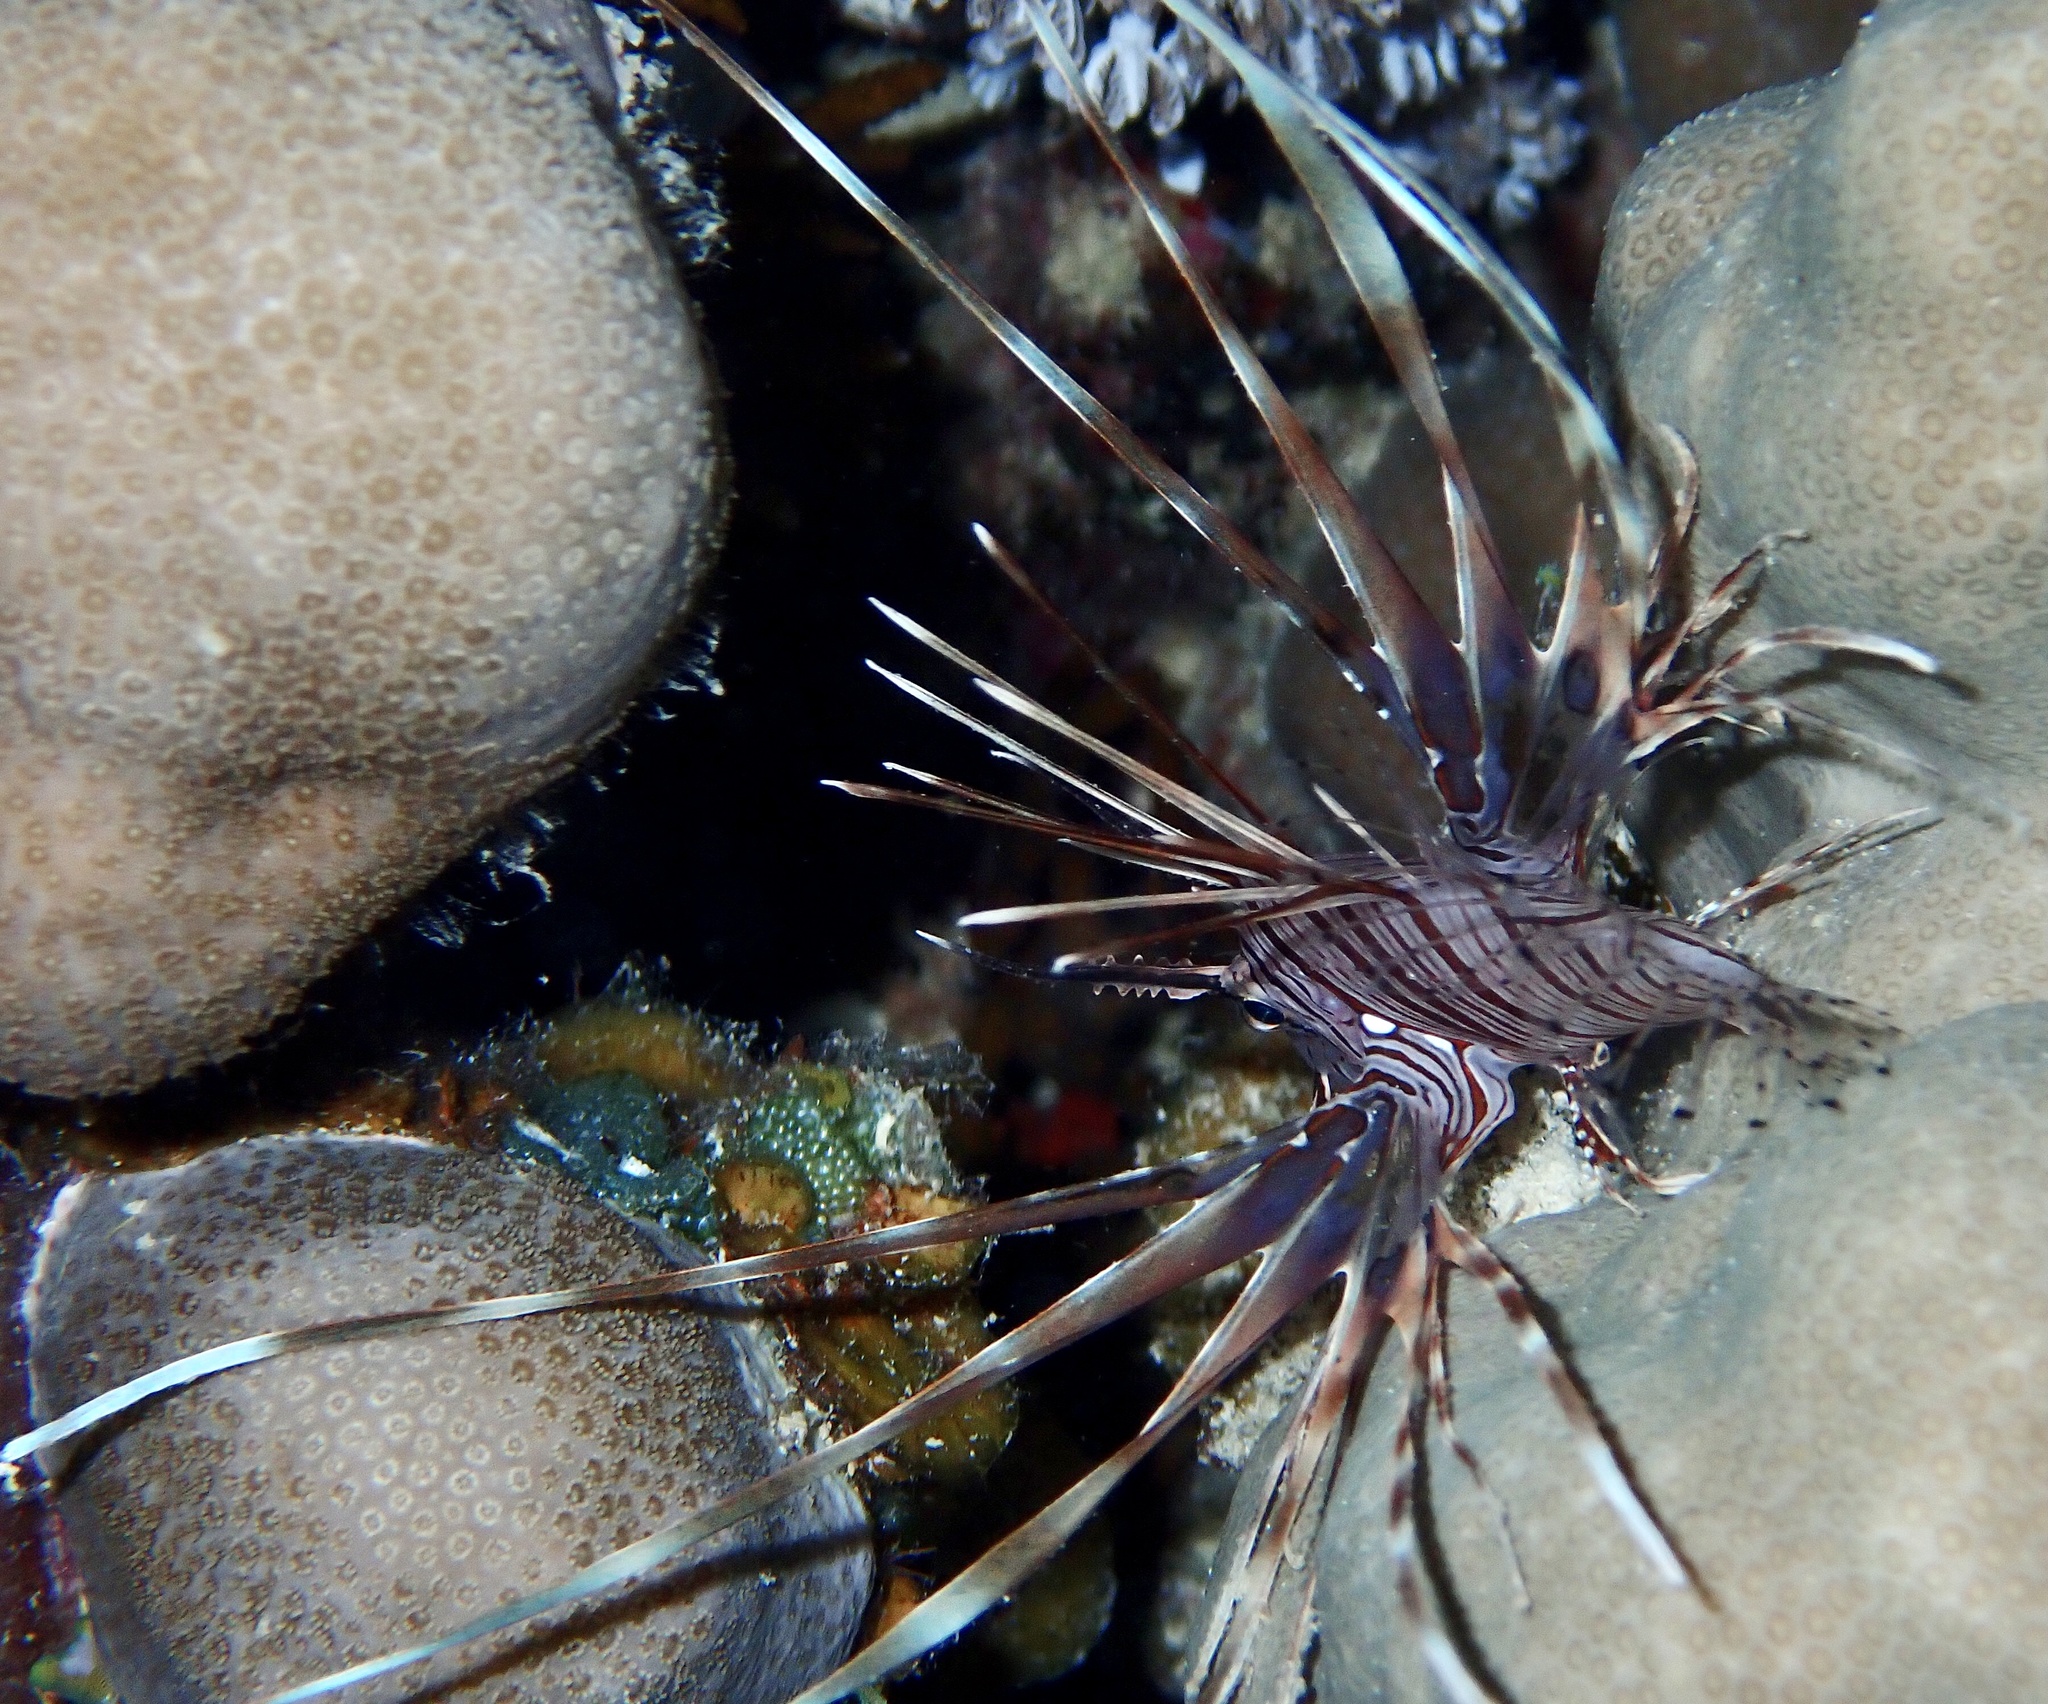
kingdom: Animalia
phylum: Chordata
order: Scorpaeniformes
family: Scorpaenidae
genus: Pterois
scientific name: Pterois miles
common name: Devil firefish
